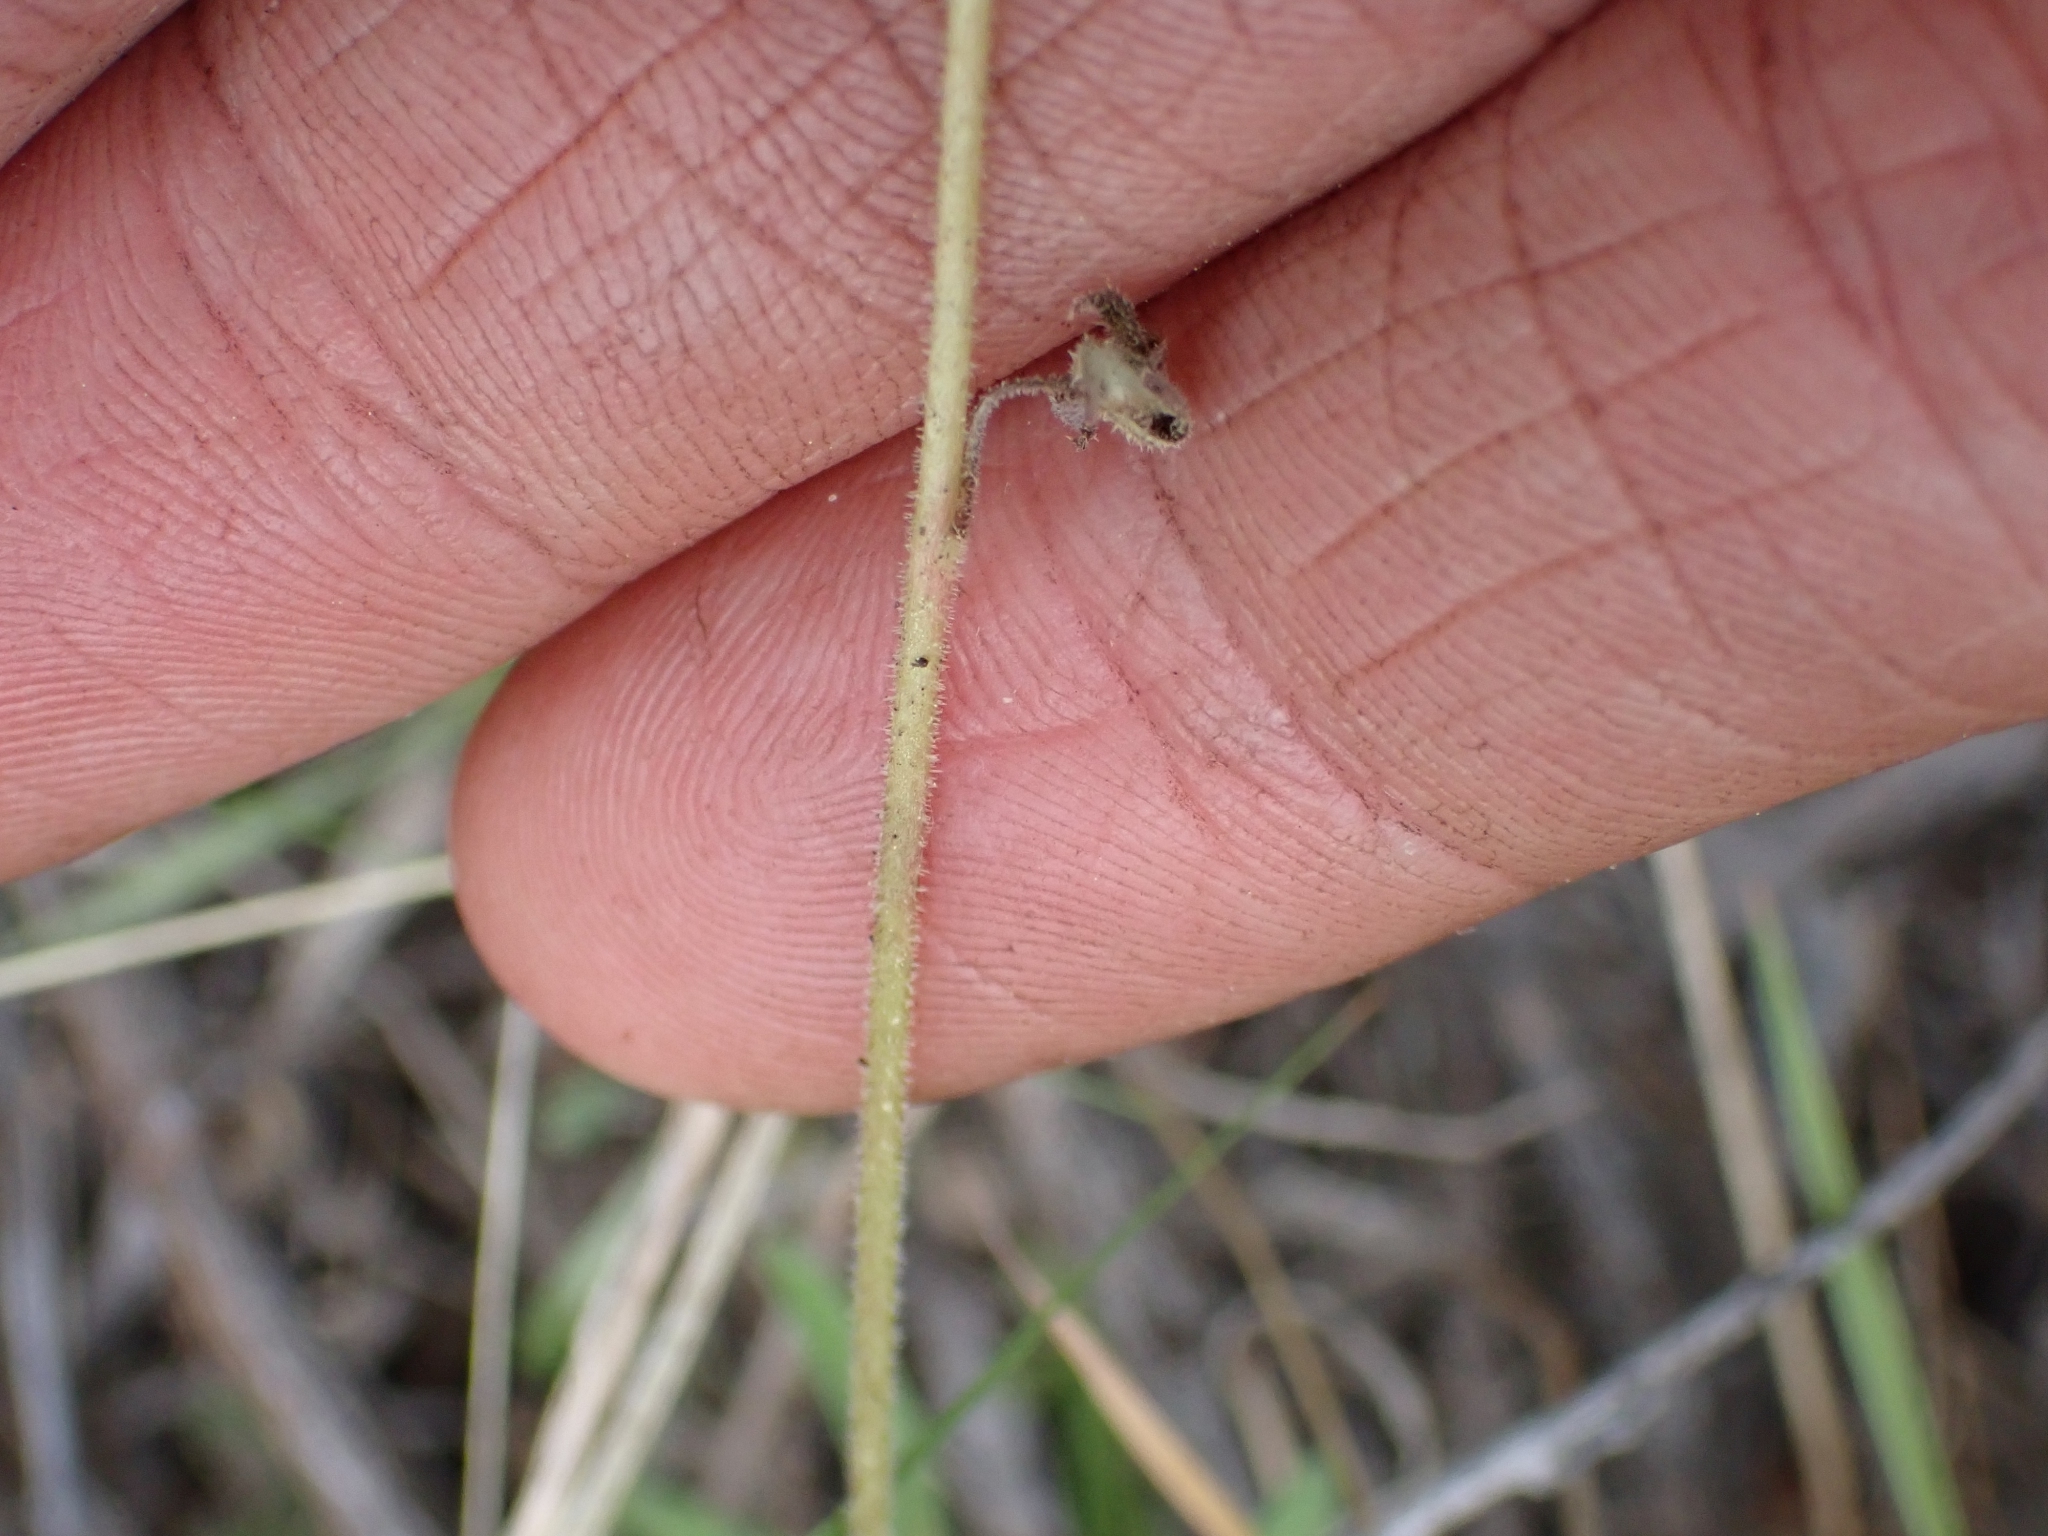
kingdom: Plantae
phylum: Tracheophyta
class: Magnoliopsida
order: Saxifragales
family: Saxifragaceae
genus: Lithophragma
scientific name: Lithophragma parviflorum
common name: Small-flowered fringe-cup
